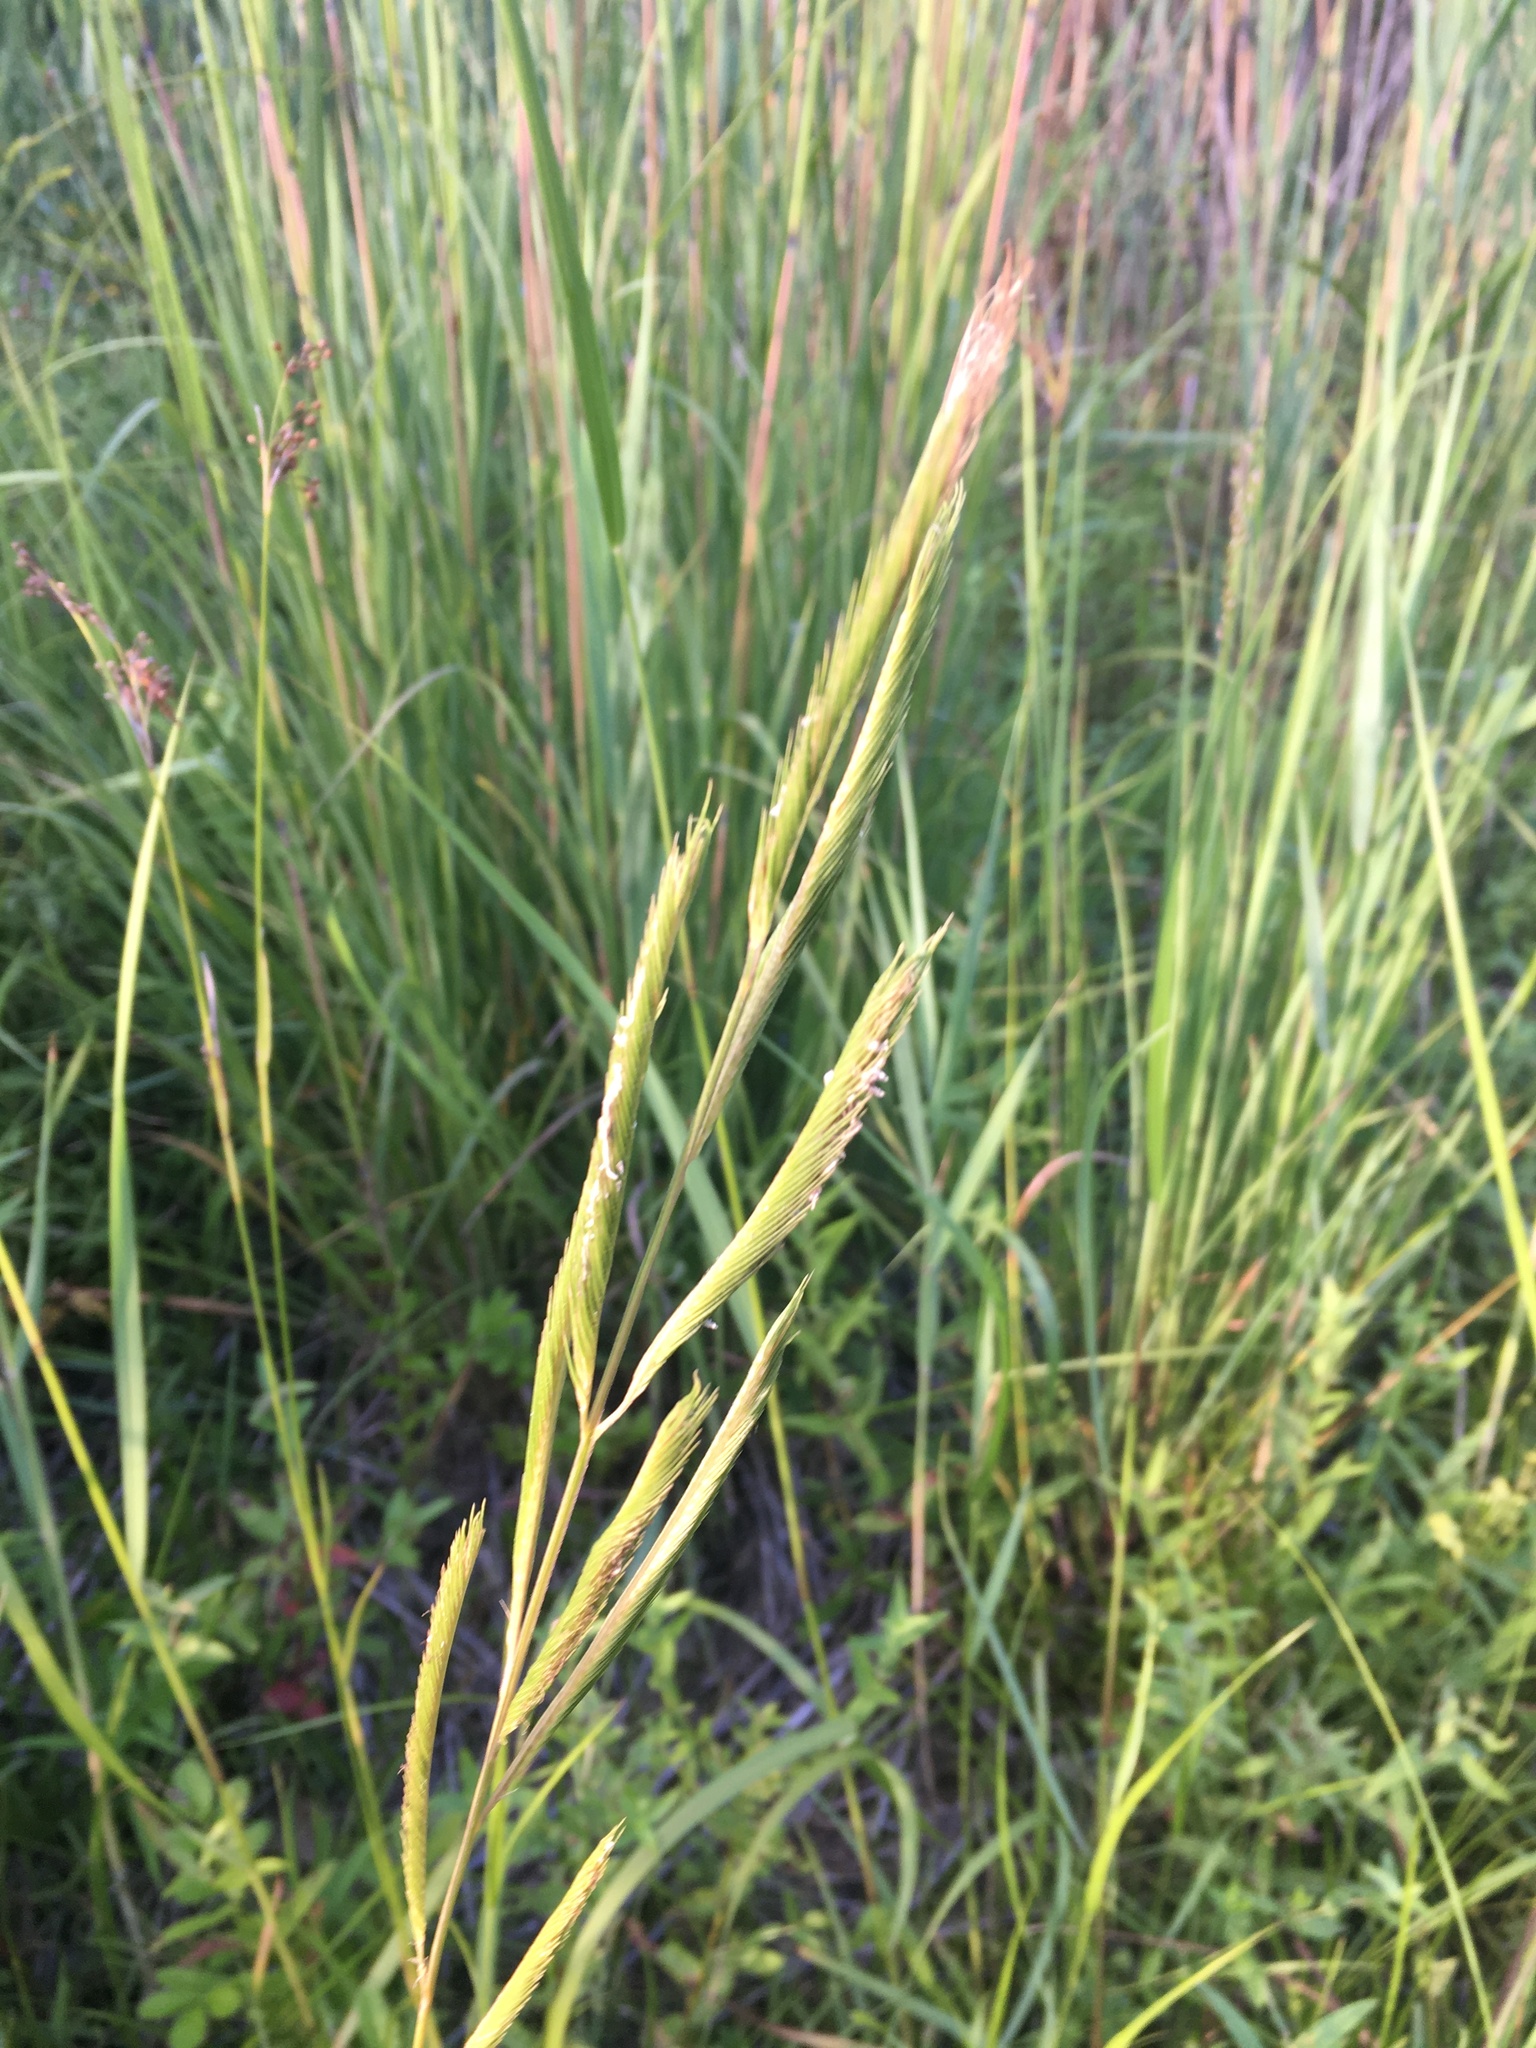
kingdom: Plantae
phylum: Tracheophyta
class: Liliopsida
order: Poales
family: Poaceae
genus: Sporobolus
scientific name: Sporobolus michauxianus
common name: Freshwater cordgrass
